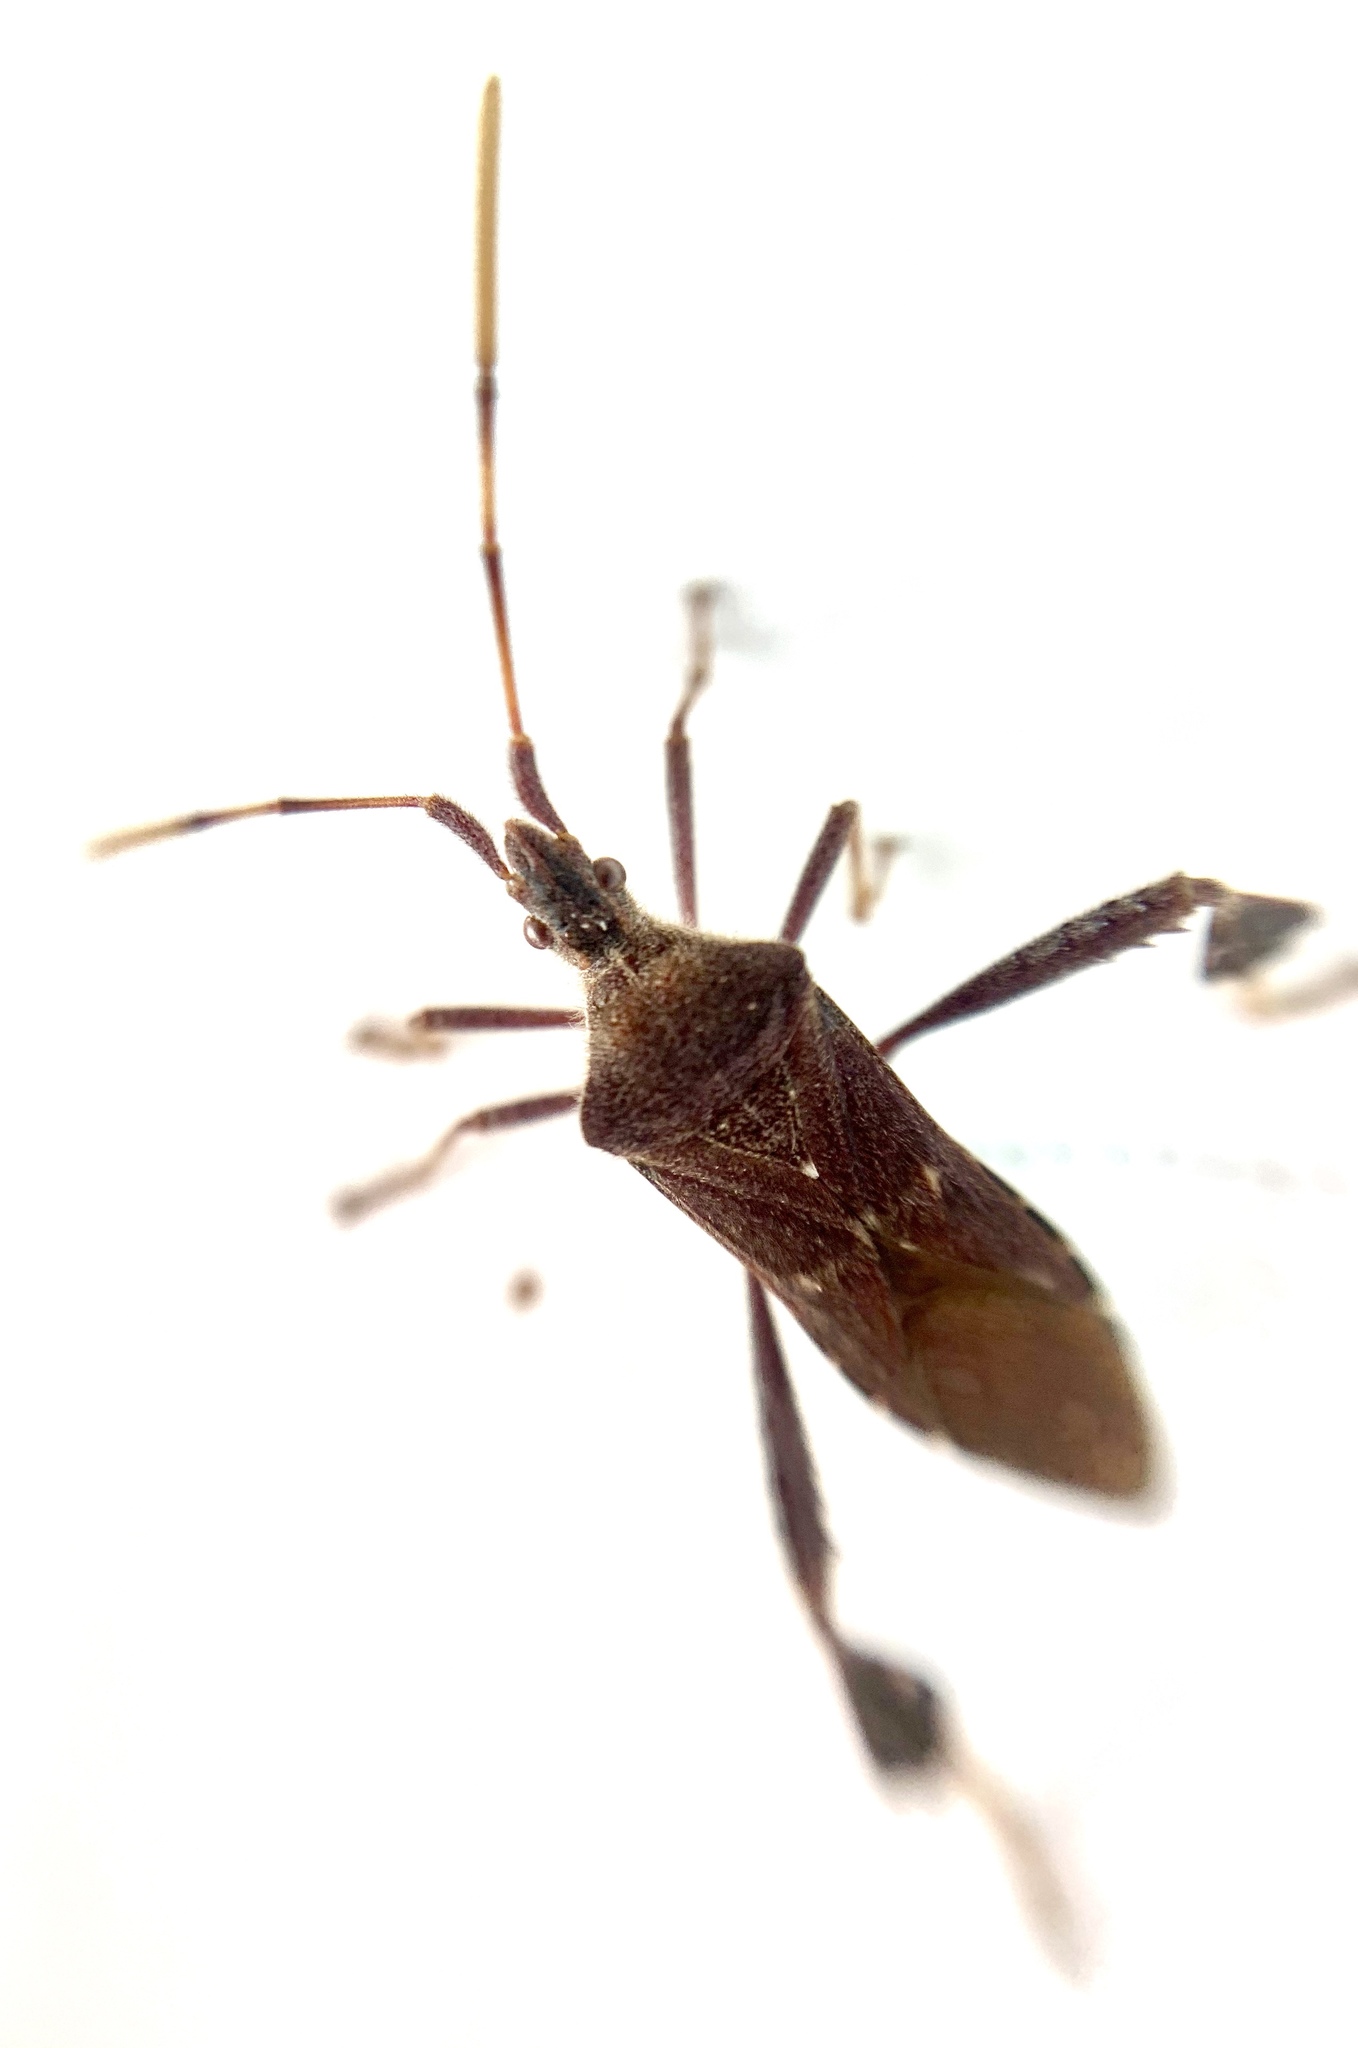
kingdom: Animalia
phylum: Arthropoda
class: Insecta
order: Hemiptera
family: Coreidae
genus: Leptoglossus
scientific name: Leptoglossus oppositus
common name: Northern leaf-footed bug
